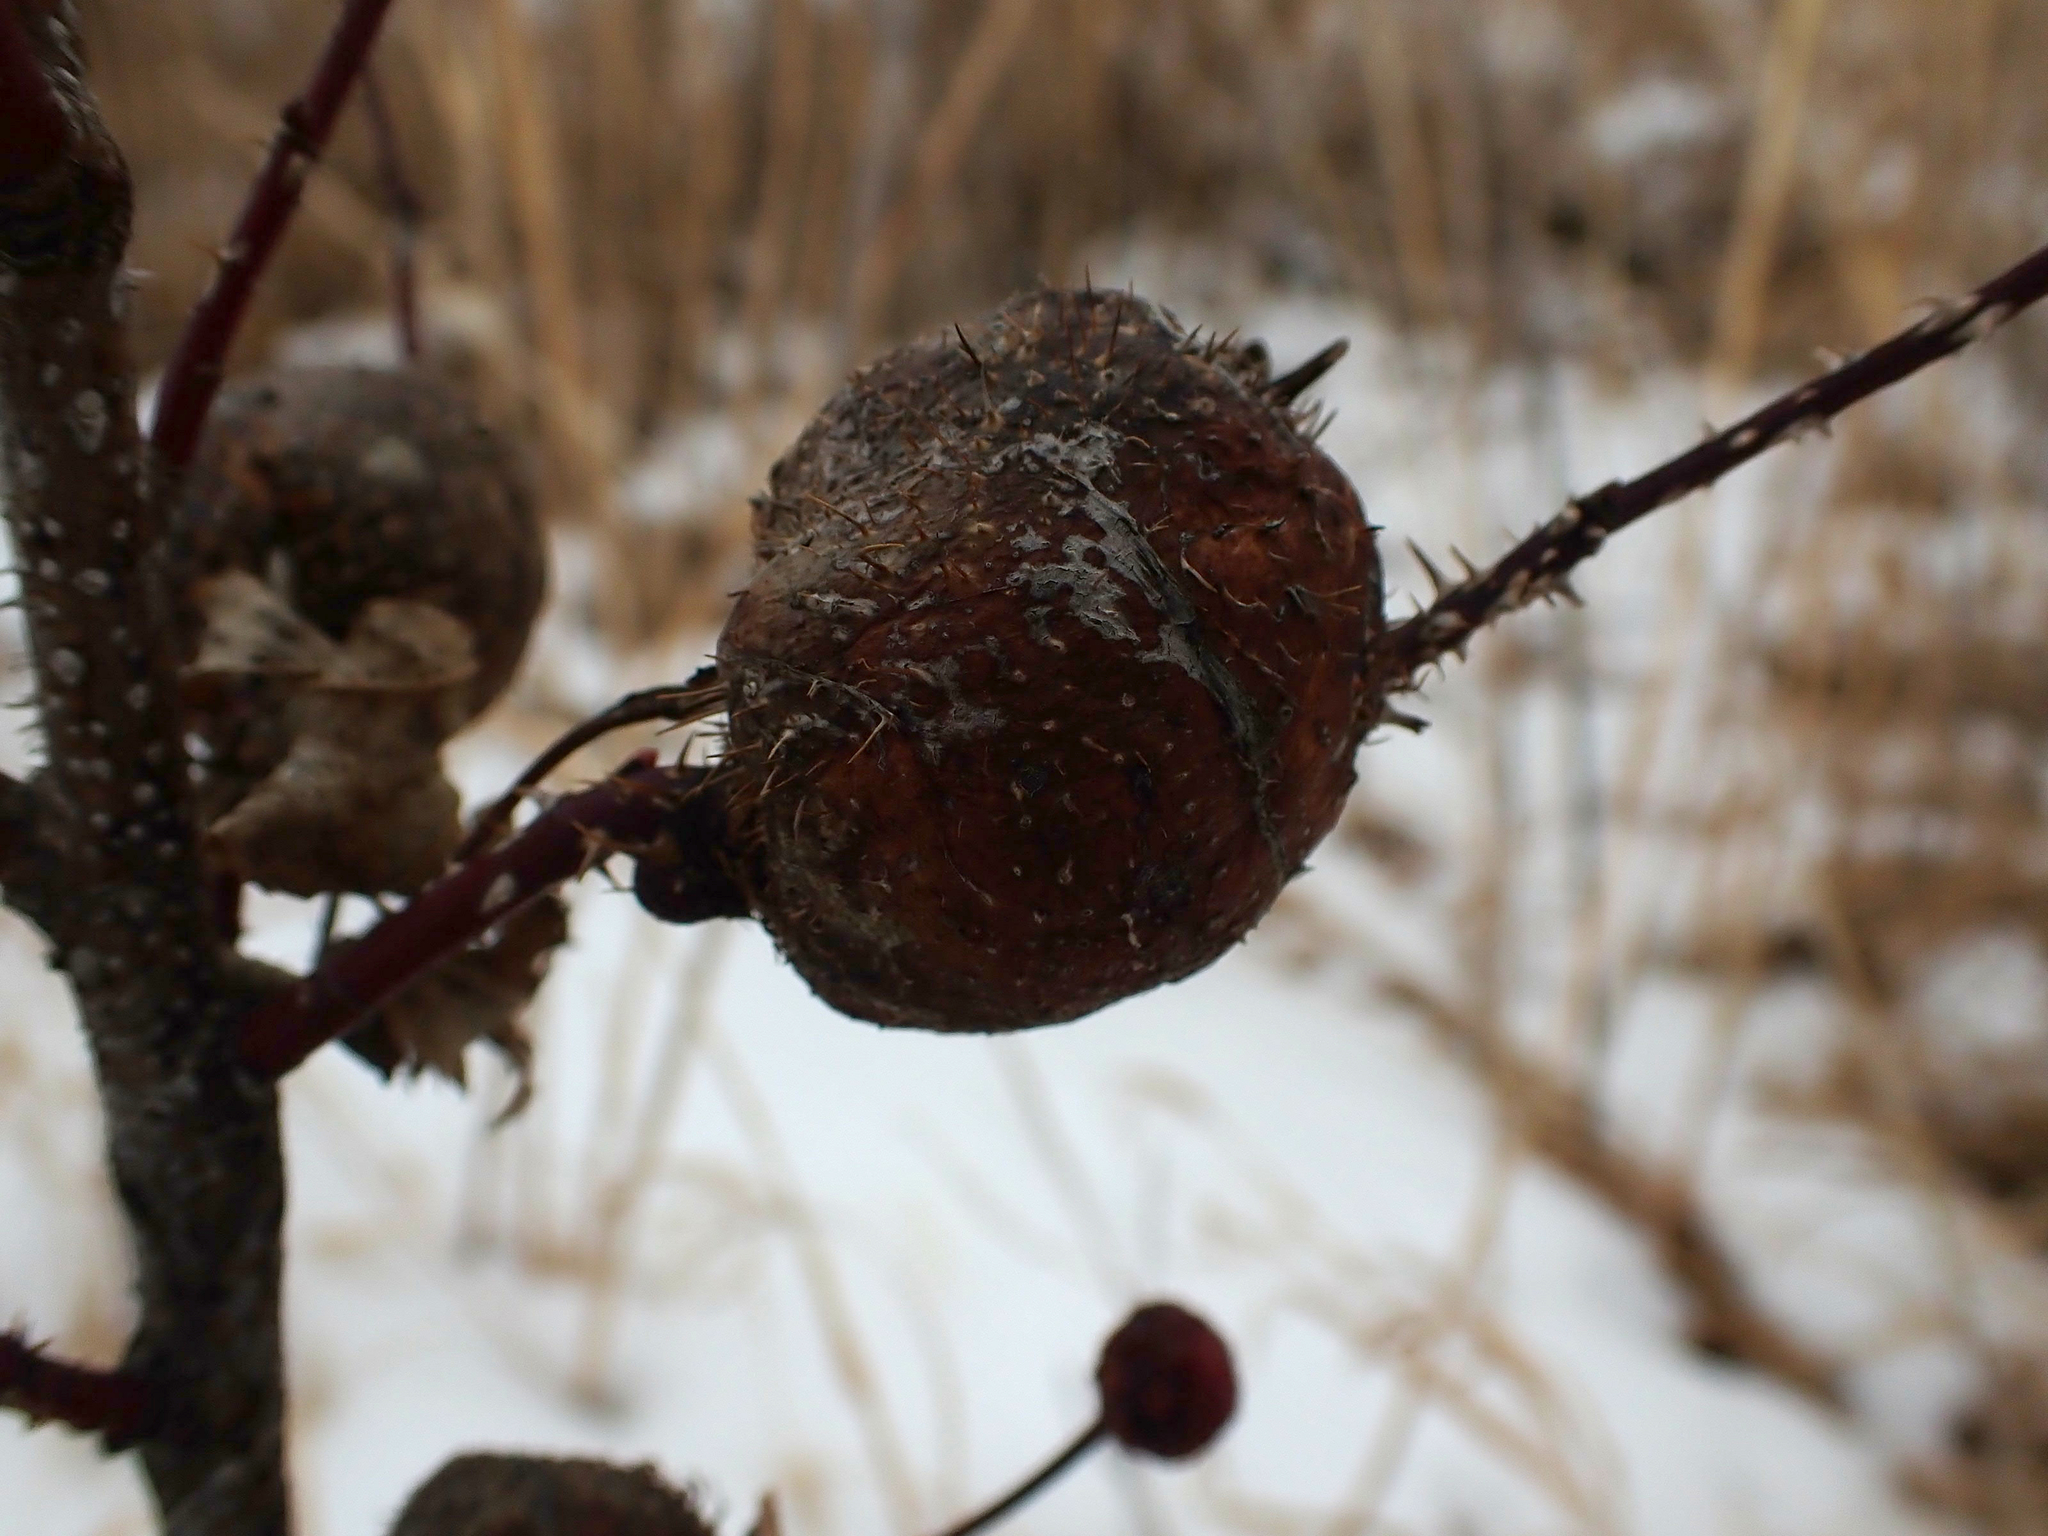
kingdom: Animalia
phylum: Arthropoda
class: Insecta
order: Hymenoptera
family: Cynipidae
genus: Diplolepis
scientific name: Diplolepis spinosa
